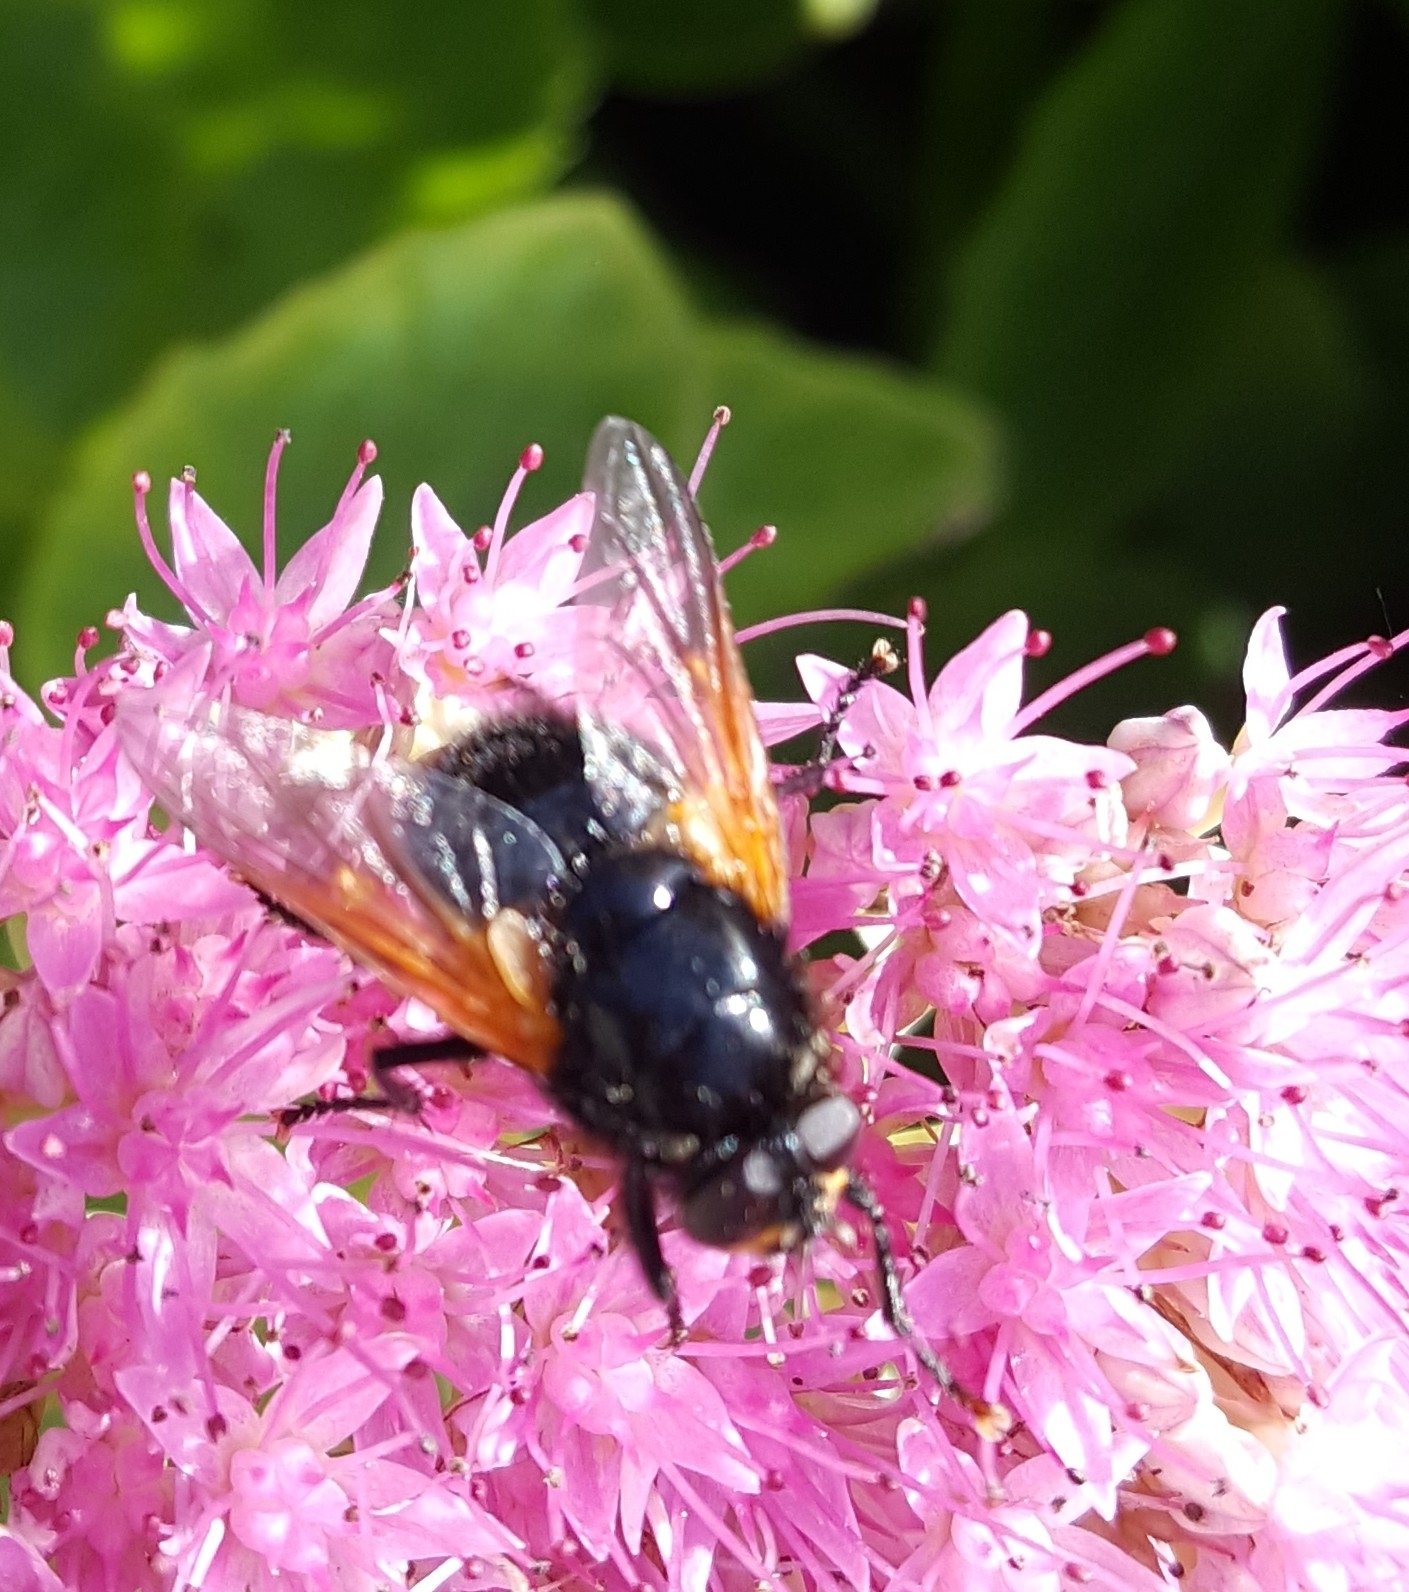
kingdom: Animalia
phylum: Arthropoda
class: Insecta
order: Diptera
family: Muscidae
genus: Mesembrina
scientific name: Mesembrina meridiana
